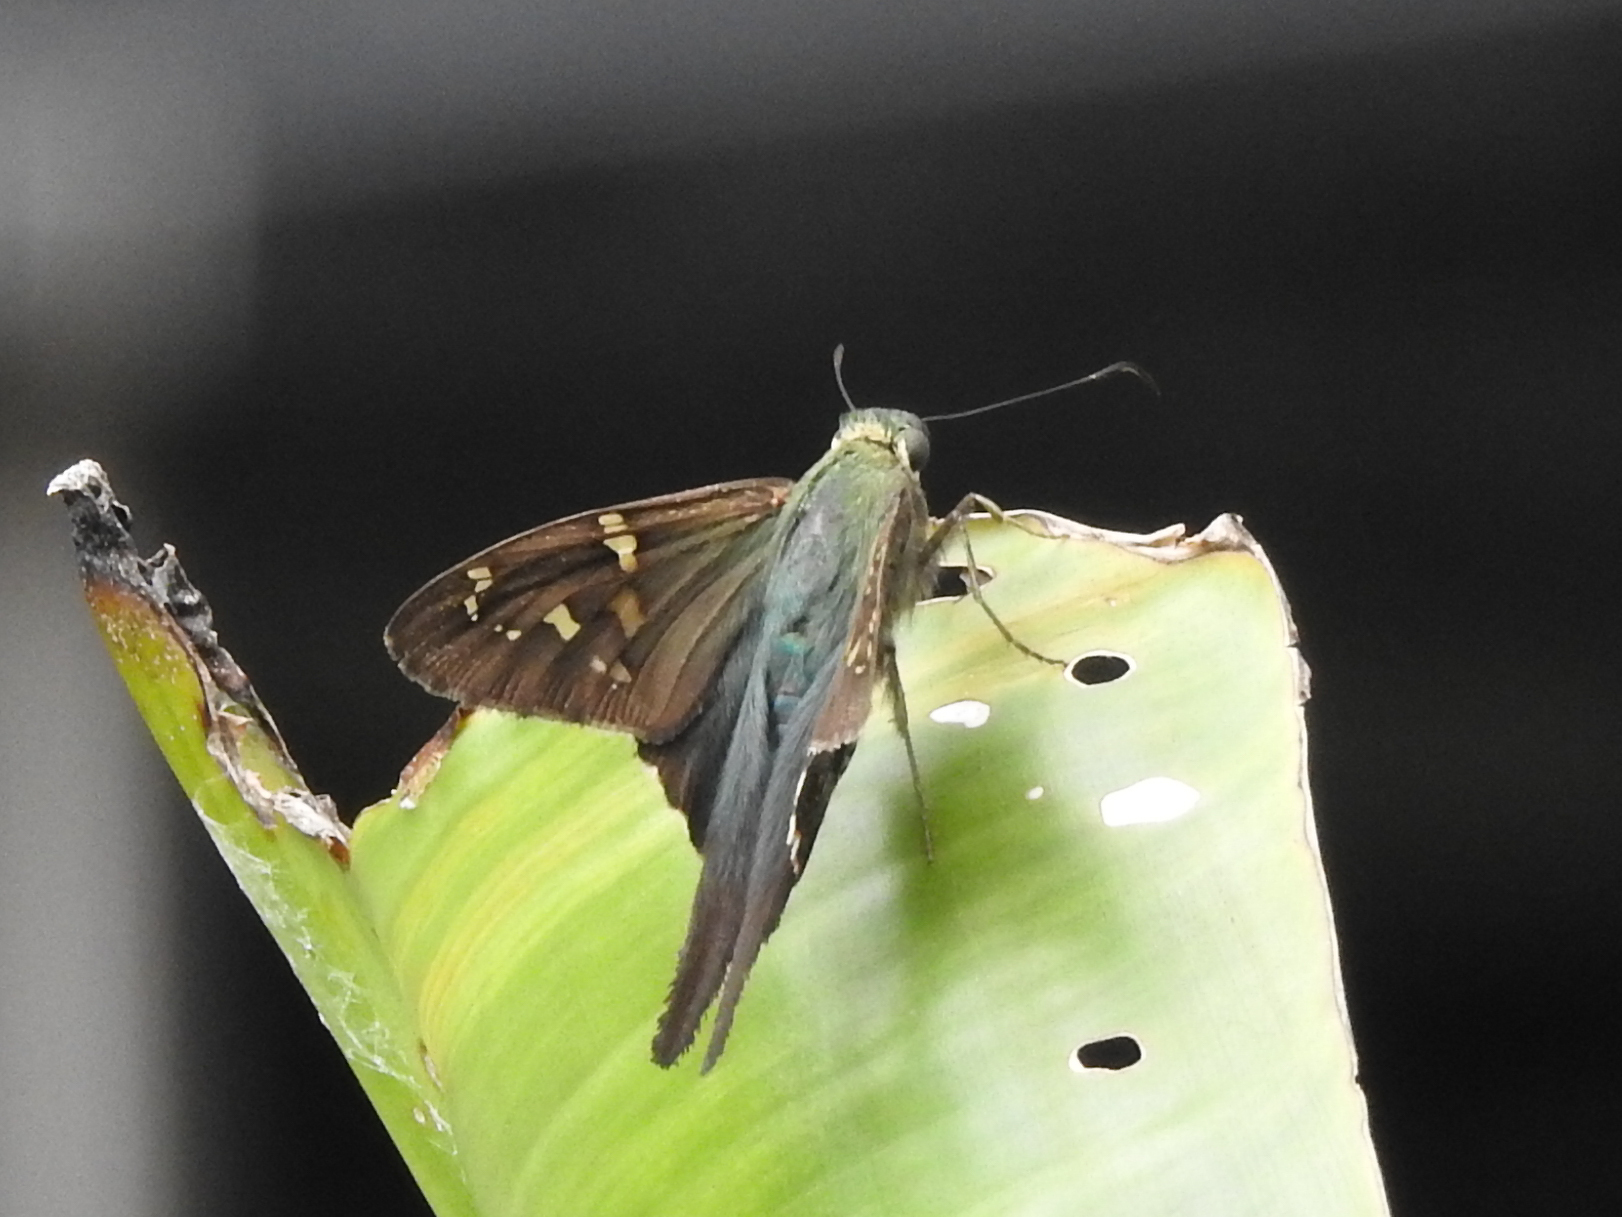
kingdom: Animalia
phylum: Arthropoda
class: Insecta
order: Lepidoptera
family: Hesperiidae
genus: Urbanus
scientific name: Urbanus proteus
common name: Long-tailed skipper
